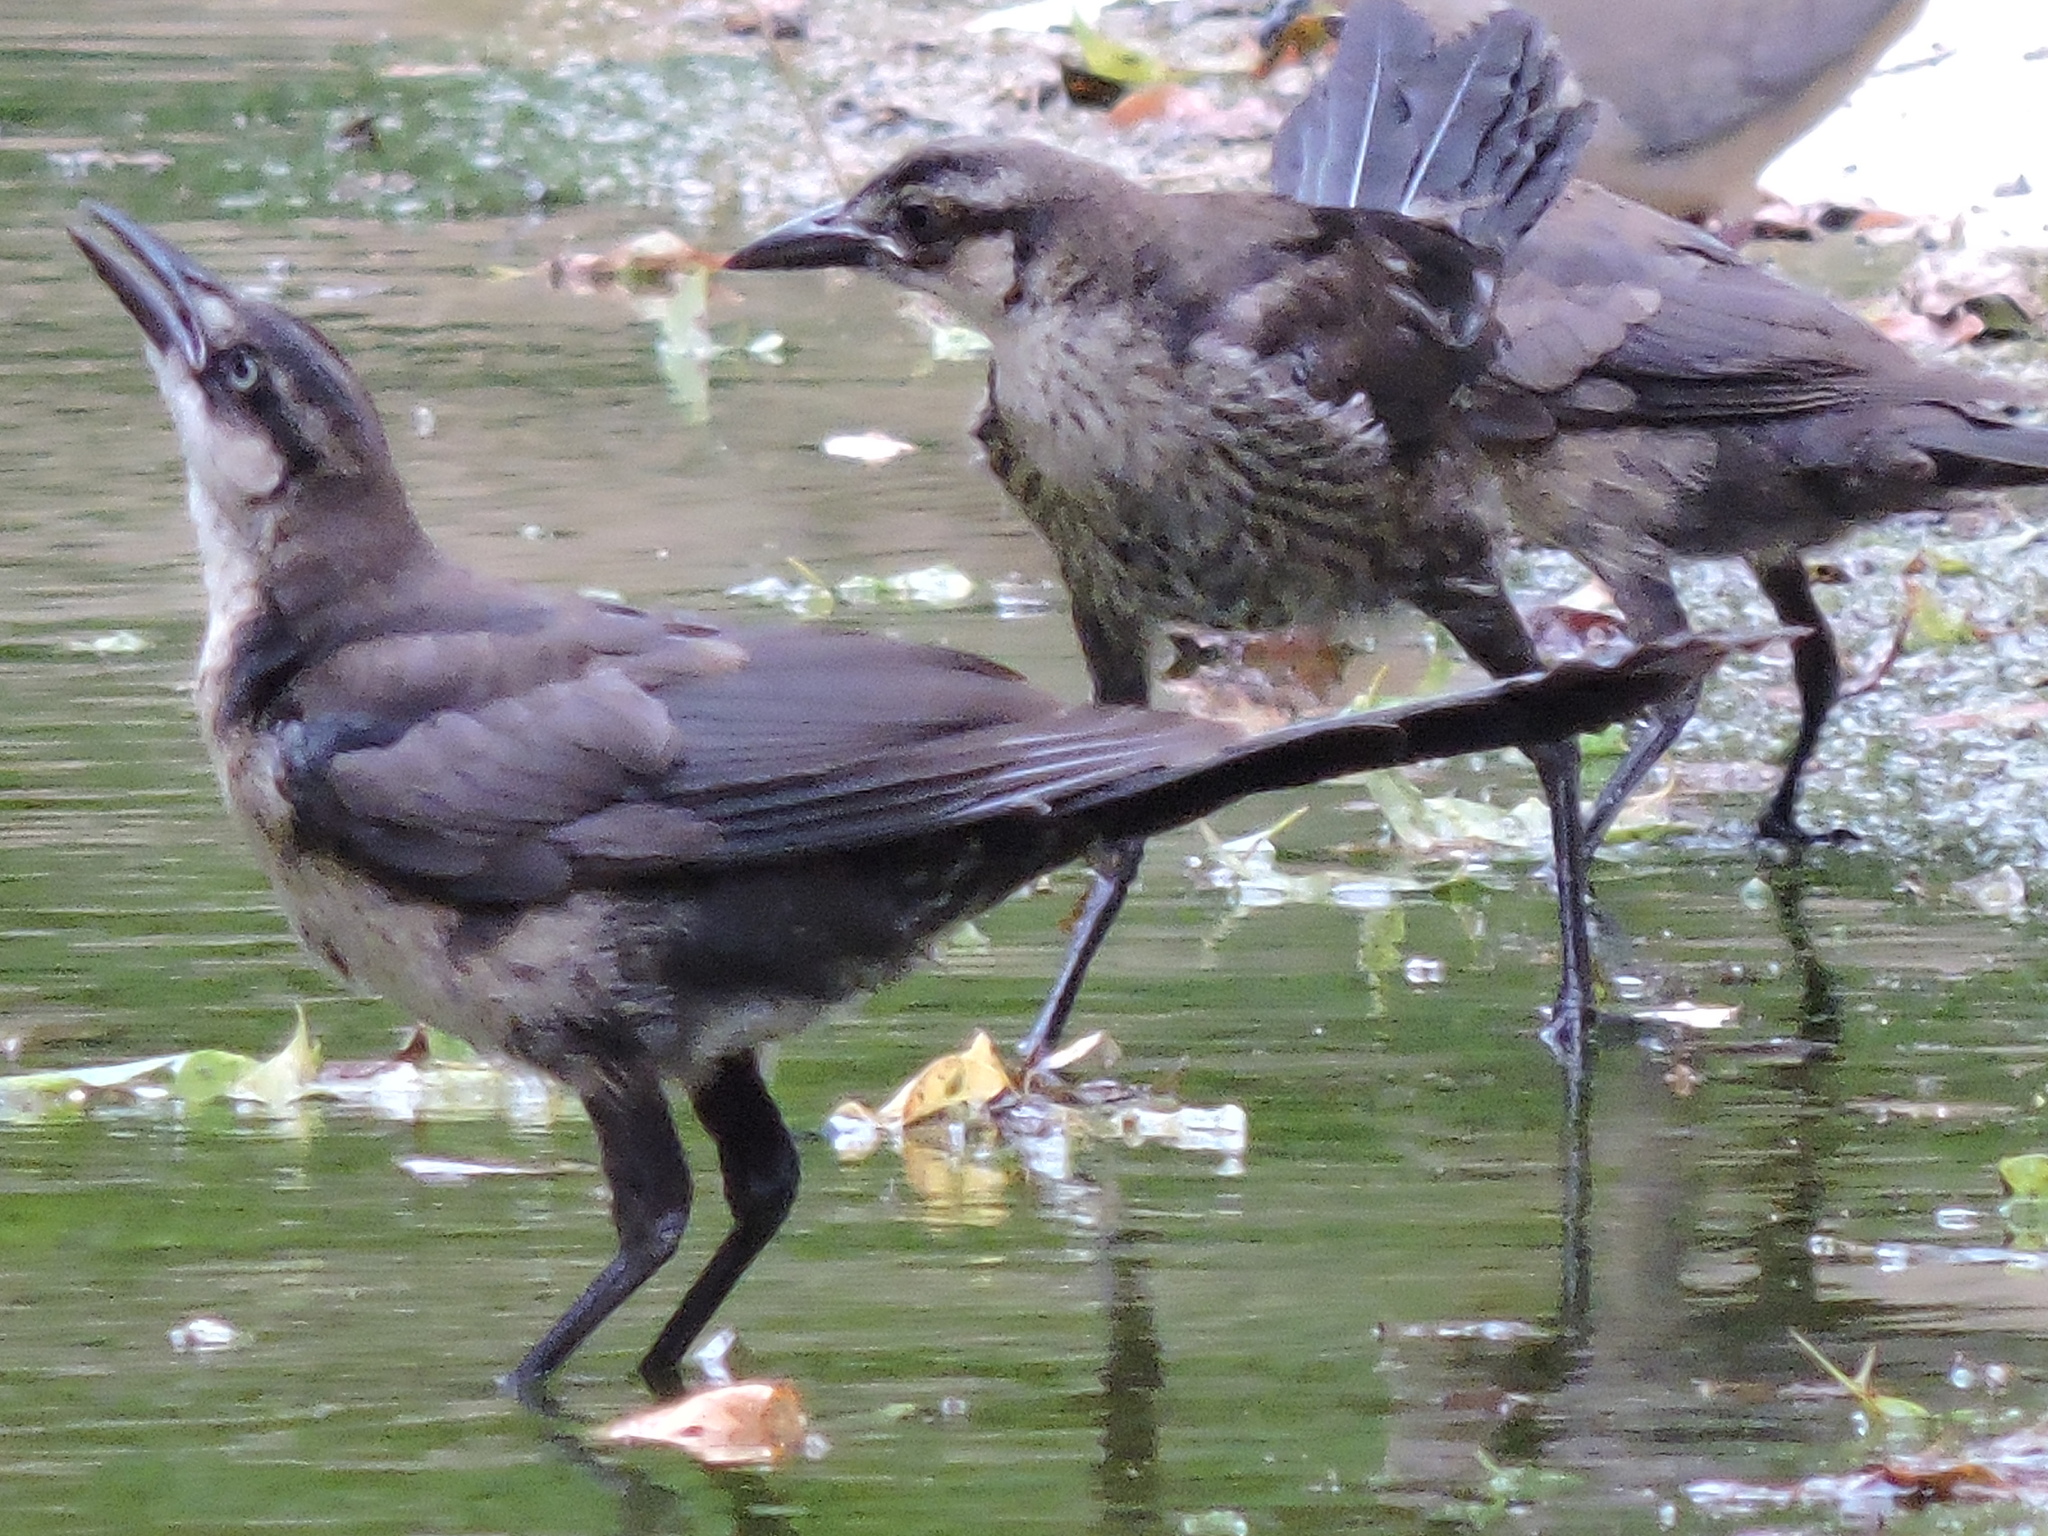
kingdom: Animalia
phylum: Chordata
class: Aves
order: Passeriformes
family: Icteridae
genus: Quiscalus
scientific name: Quiscalus mexicanus
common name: Great-tailed grackle
